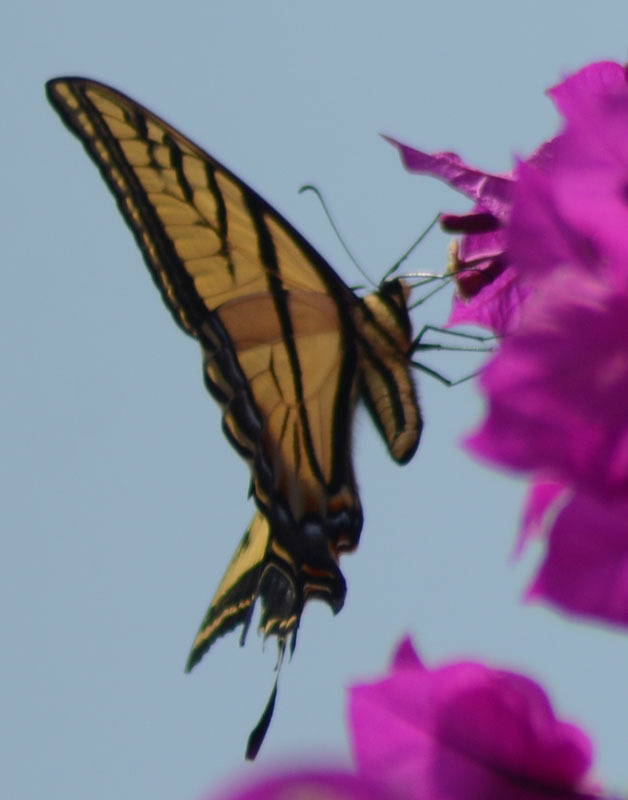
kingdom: Animalia
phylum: Arthropoda
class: Insecta
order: Lepidoptera
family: Papilionidae
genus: Papilio
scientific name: Papilio multicaudata
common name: Two-tailed tiger swallowtail
